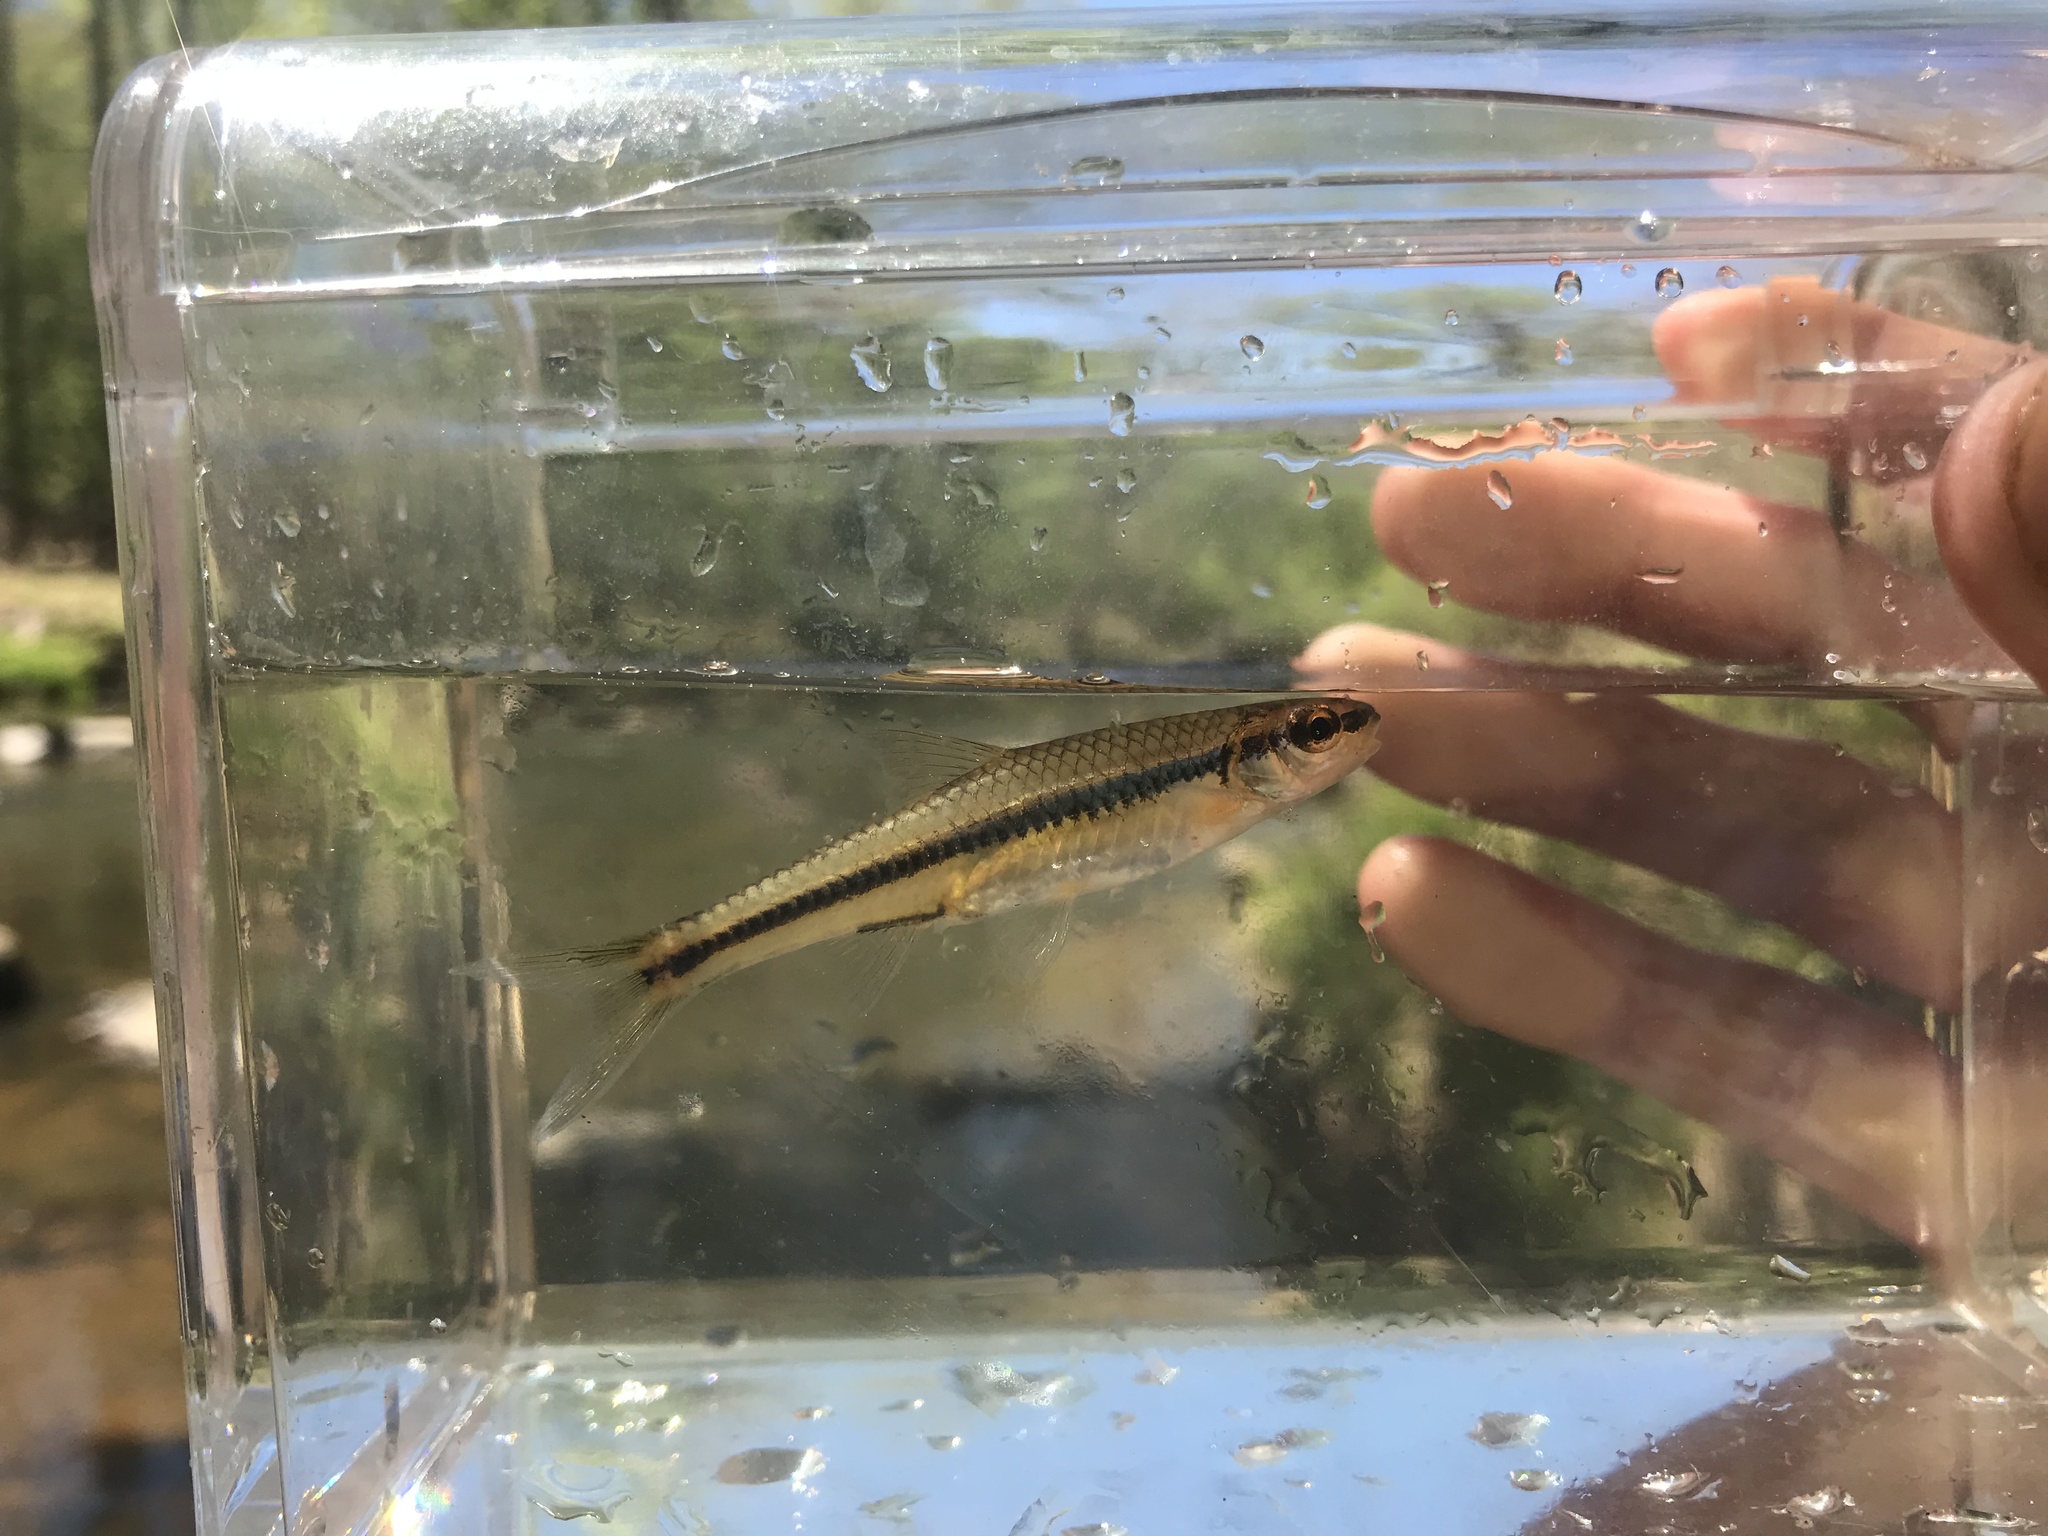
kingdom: Animalia
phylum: Chordata
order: Cypriniformes
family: Cyprinidae
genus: Notropis
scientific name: Notropis
